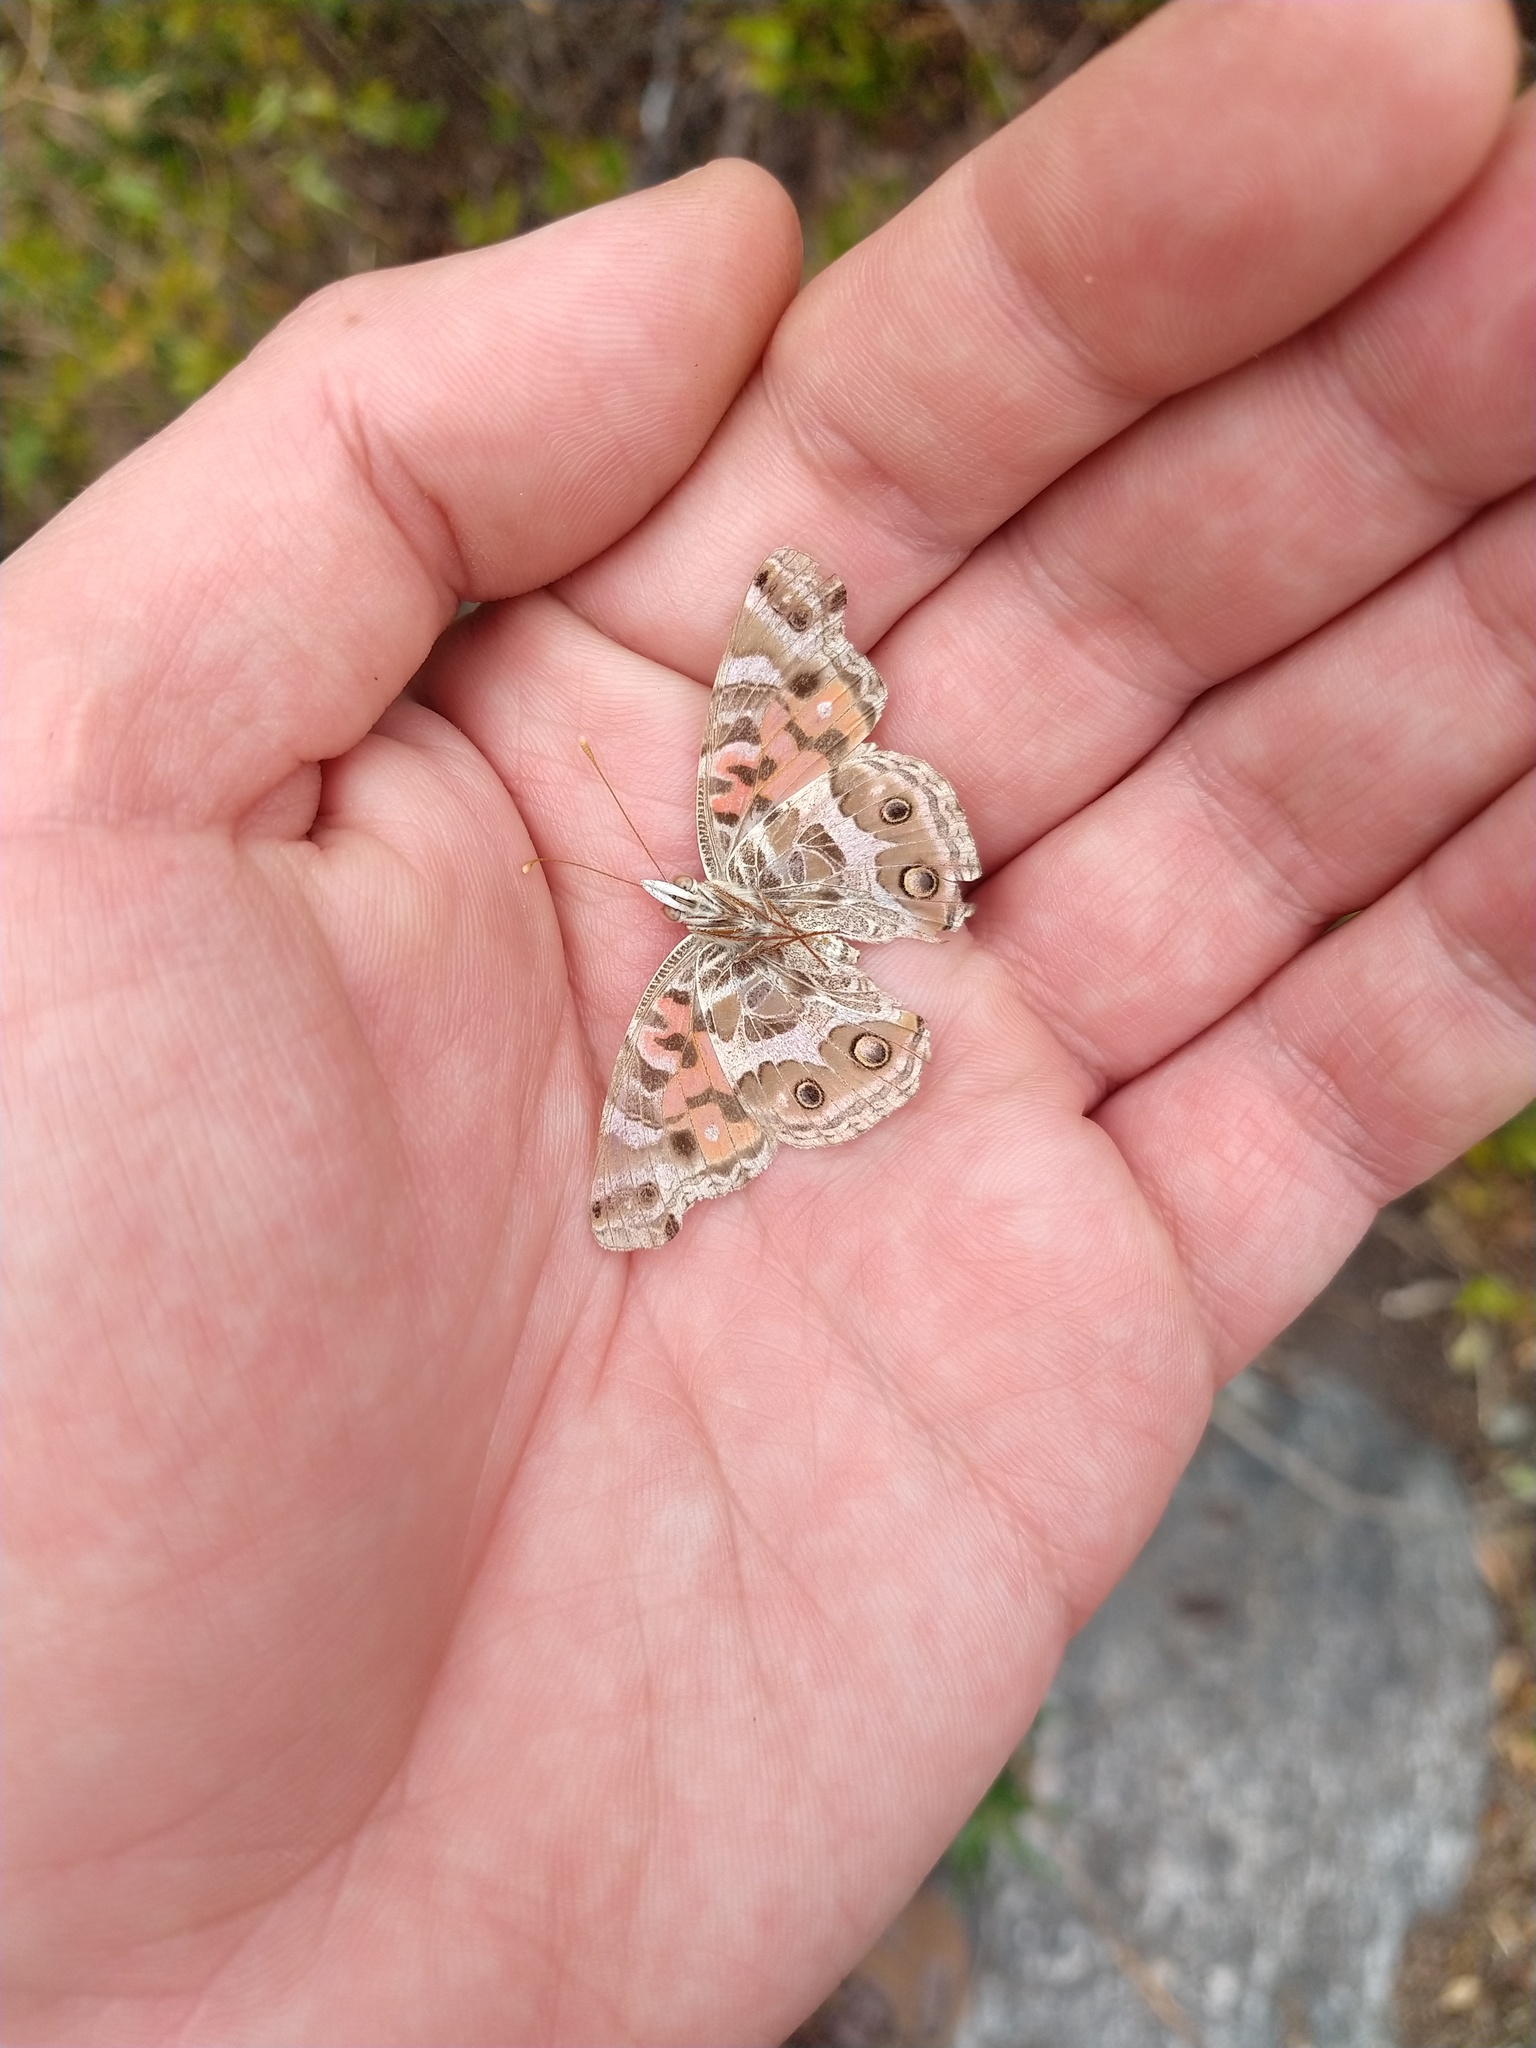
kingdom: Animalia
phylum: Arthropoda
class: Insecta
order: Lepidoptera
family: Nymphalidae
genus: Vanessa
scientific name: Vanessa braziliensis
